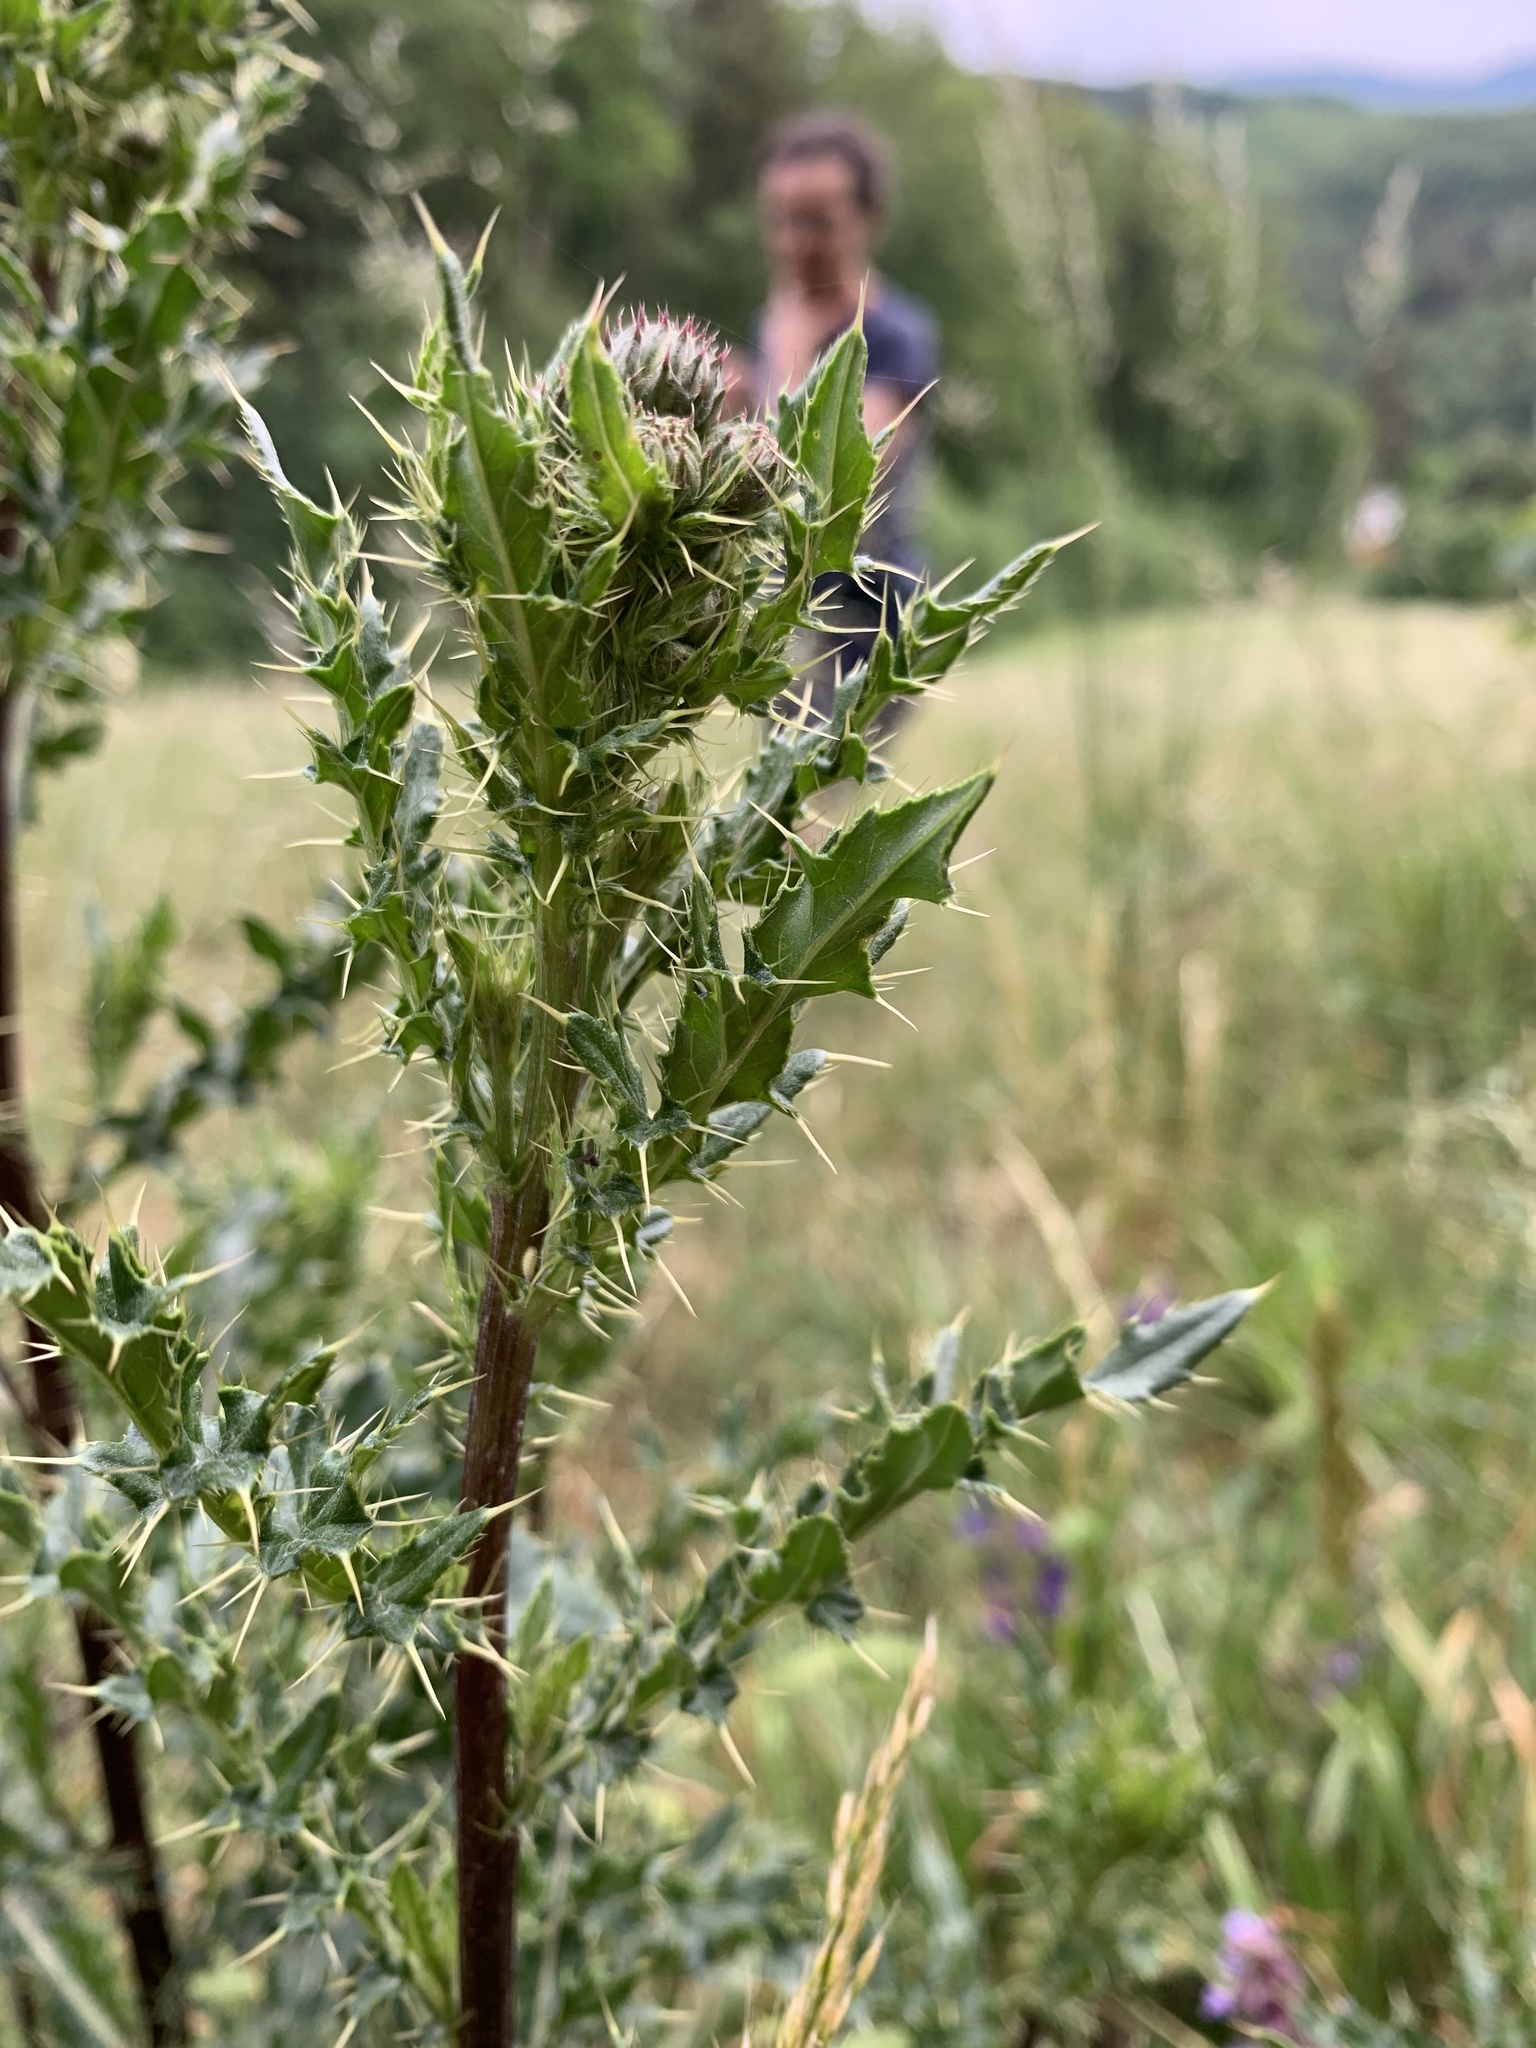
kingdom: Plantae
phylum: Tracheophyta
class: Magnoliopsida
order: Asterales
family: Asteraceae
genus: Cirsium
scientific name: Cirsium arvense
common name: Creeping thistle
